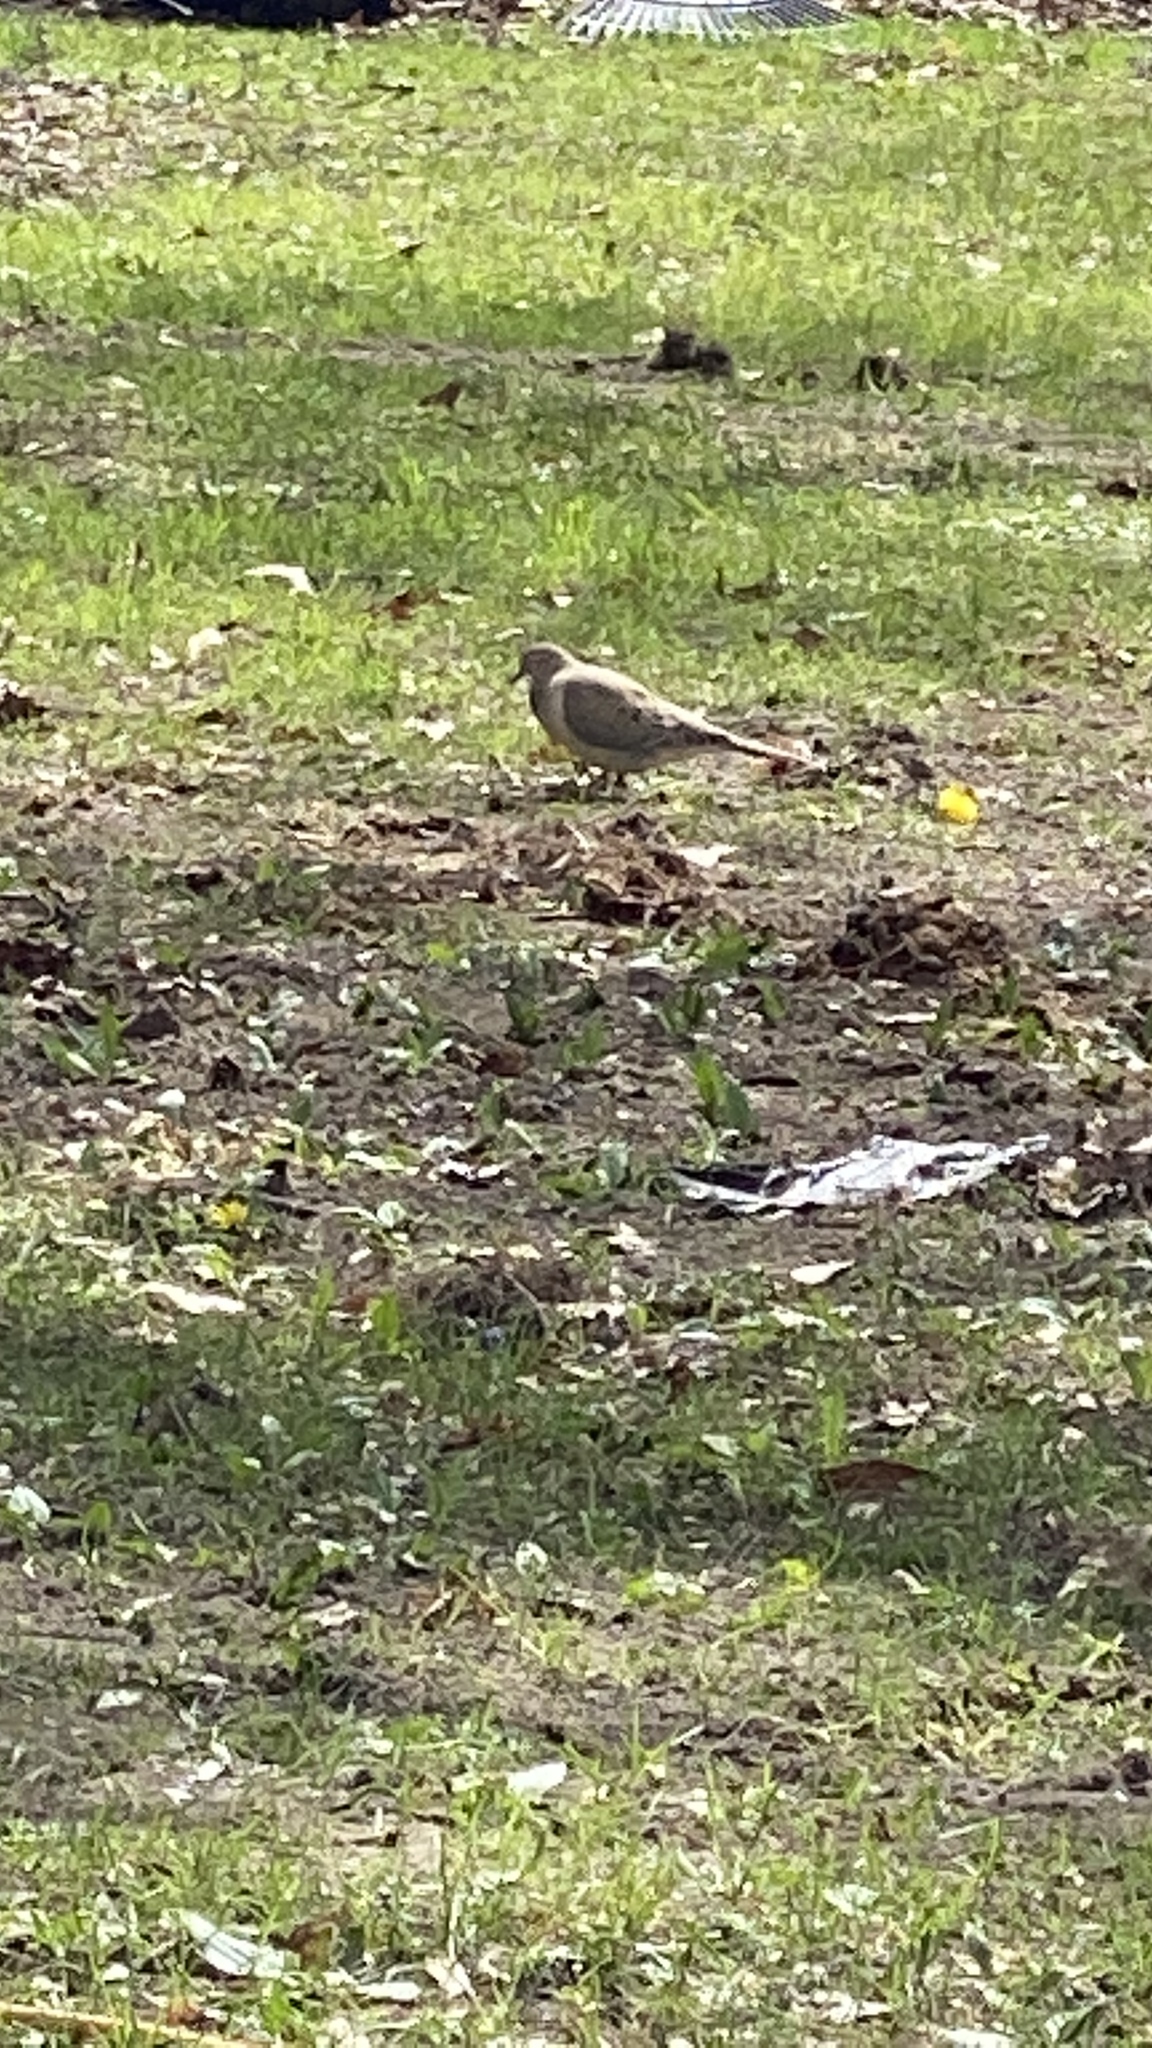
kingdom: Animalia
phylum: Chordata
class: Aves
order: Columbiformes
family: Columbidae
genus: Zenaida
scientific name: Zenaida macroura
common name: Mourning dove
